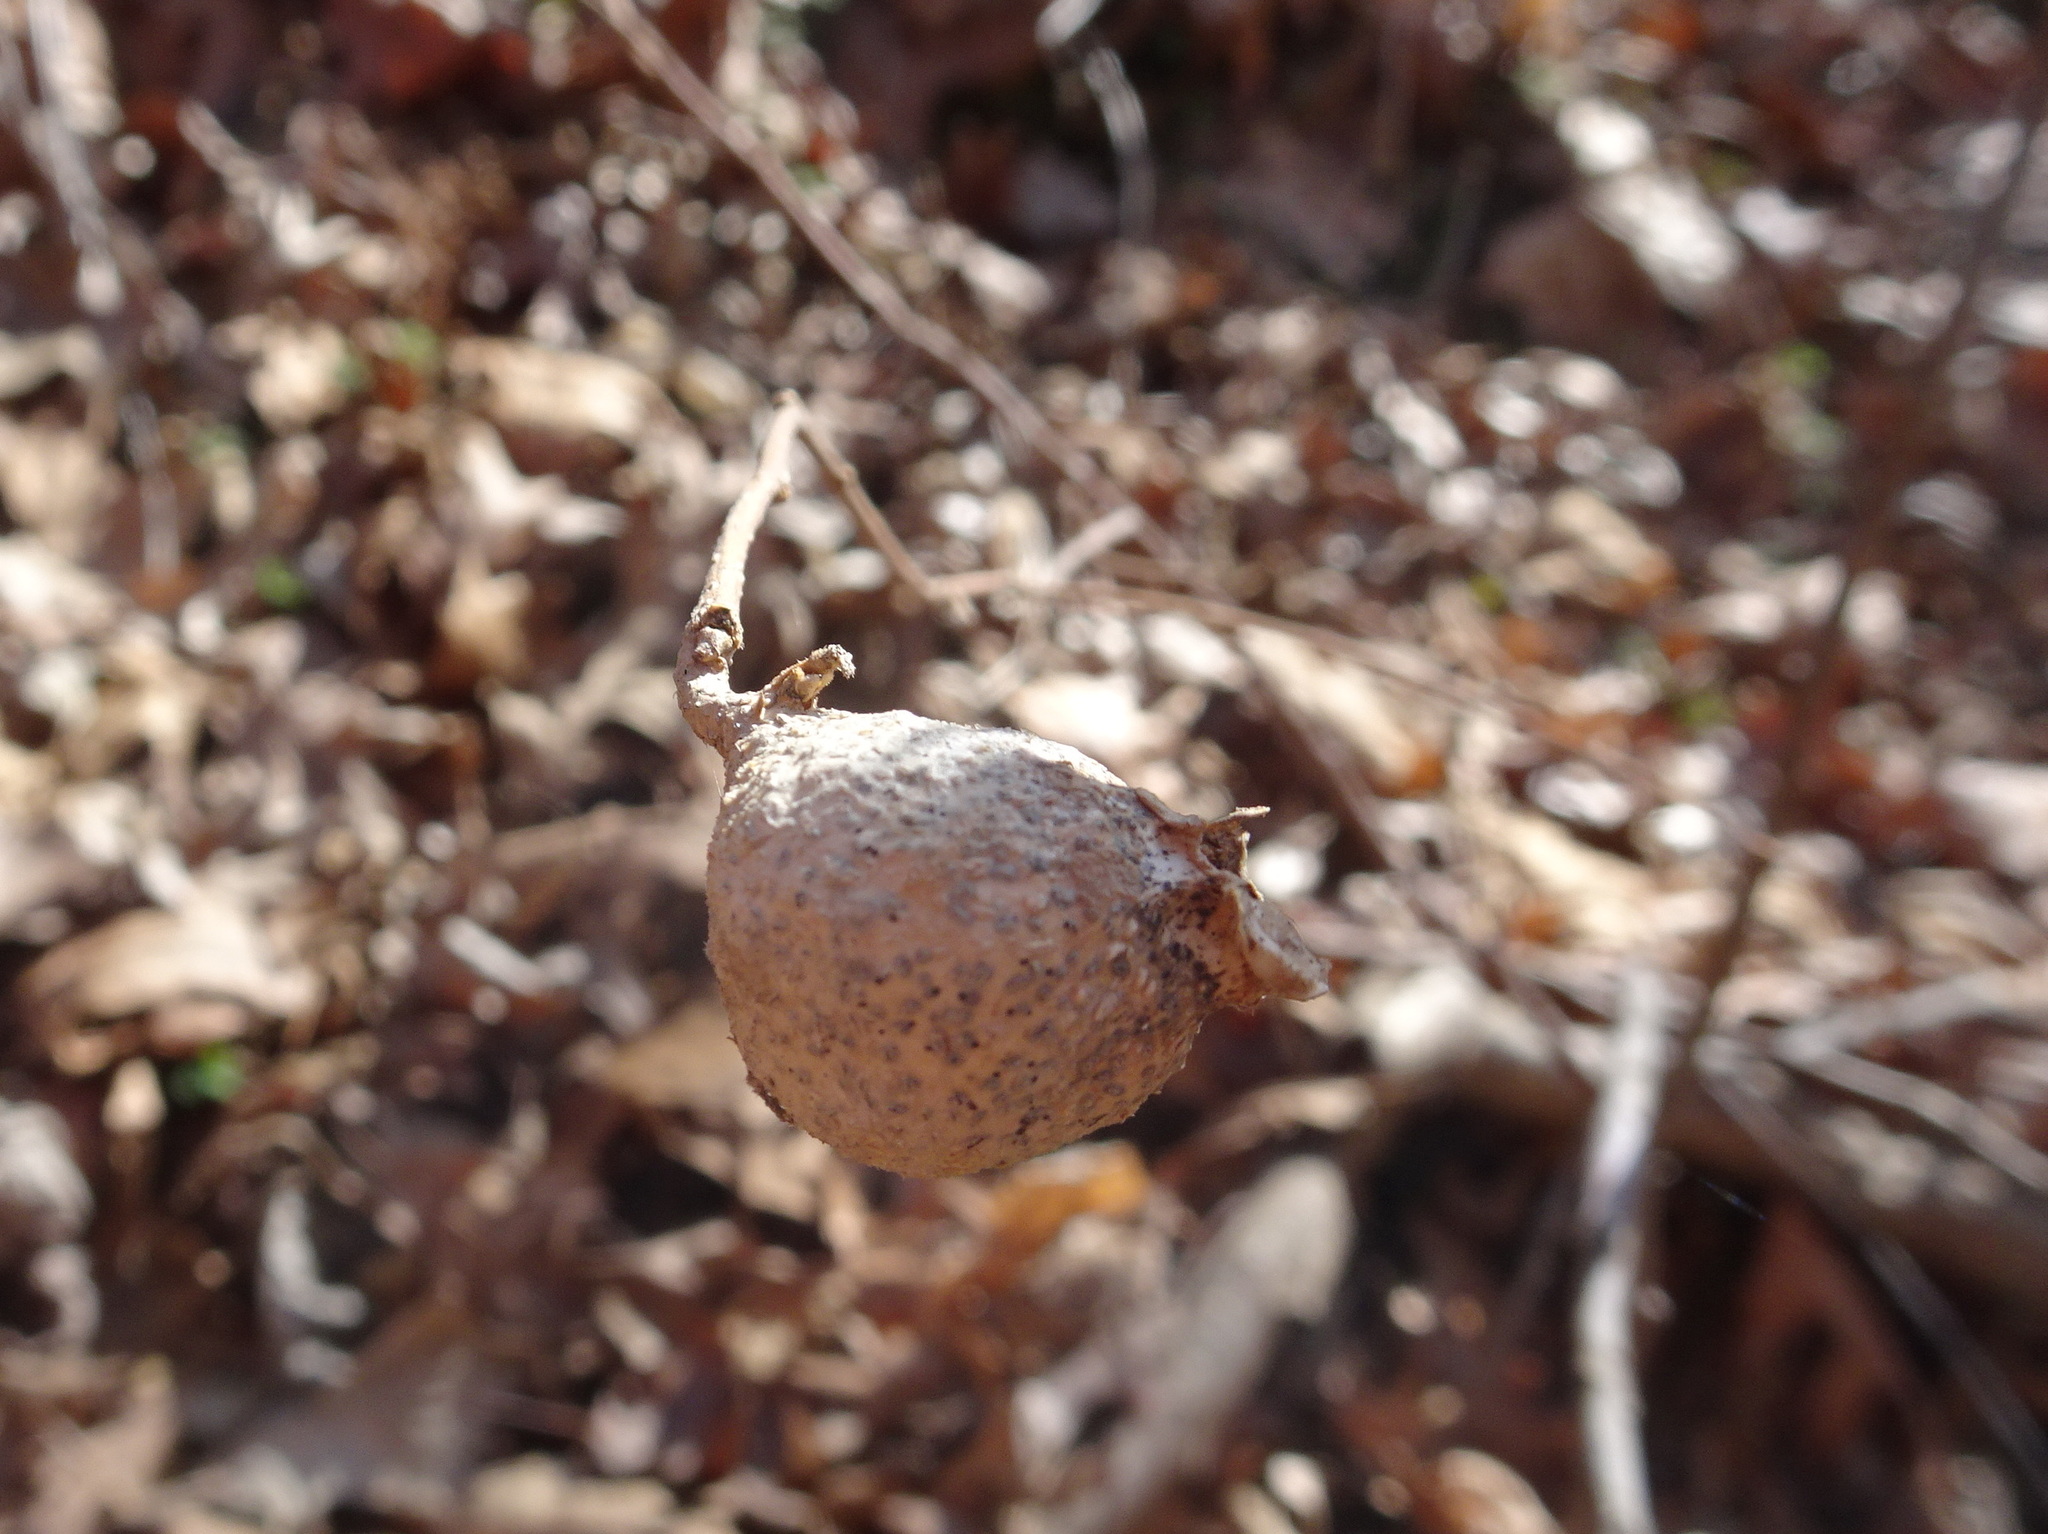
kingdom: Animalia
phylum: Arthropoda
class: Insecta
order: Hemiptera
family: Aphalaridae
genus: Pachypsylla
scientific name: Pachypsylla venusta
